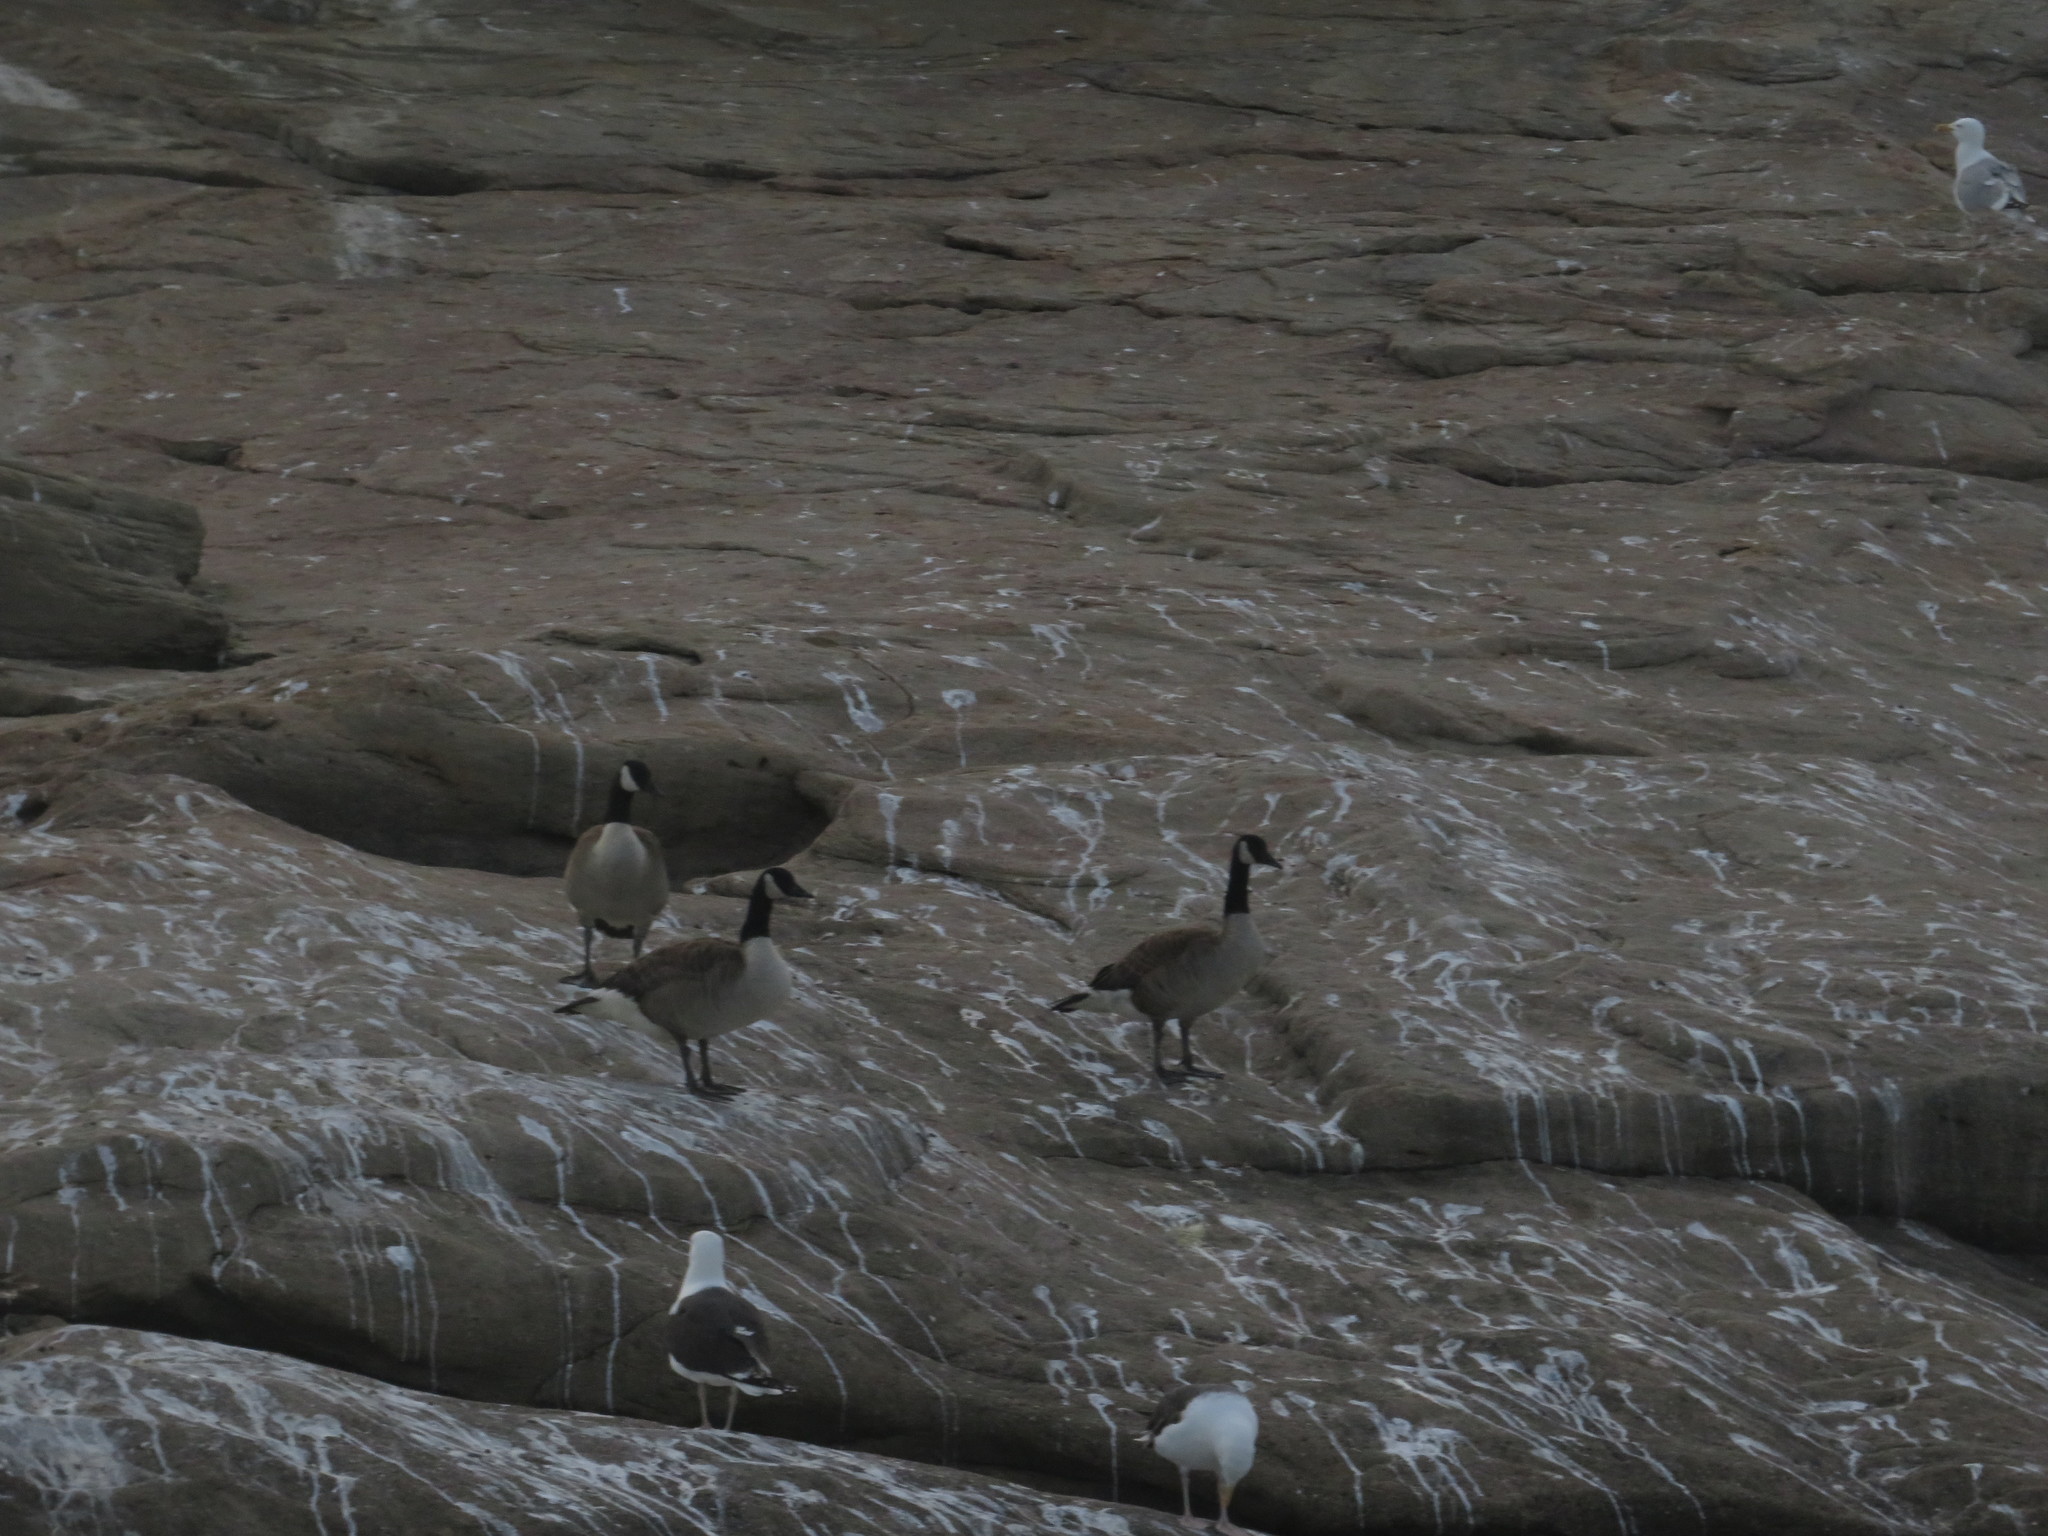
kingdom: Animalia
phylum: Chordata
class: Aves
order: Anseriformes
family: Anatidae
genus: Branta
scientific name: Branta canadensis
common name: Canada goose
